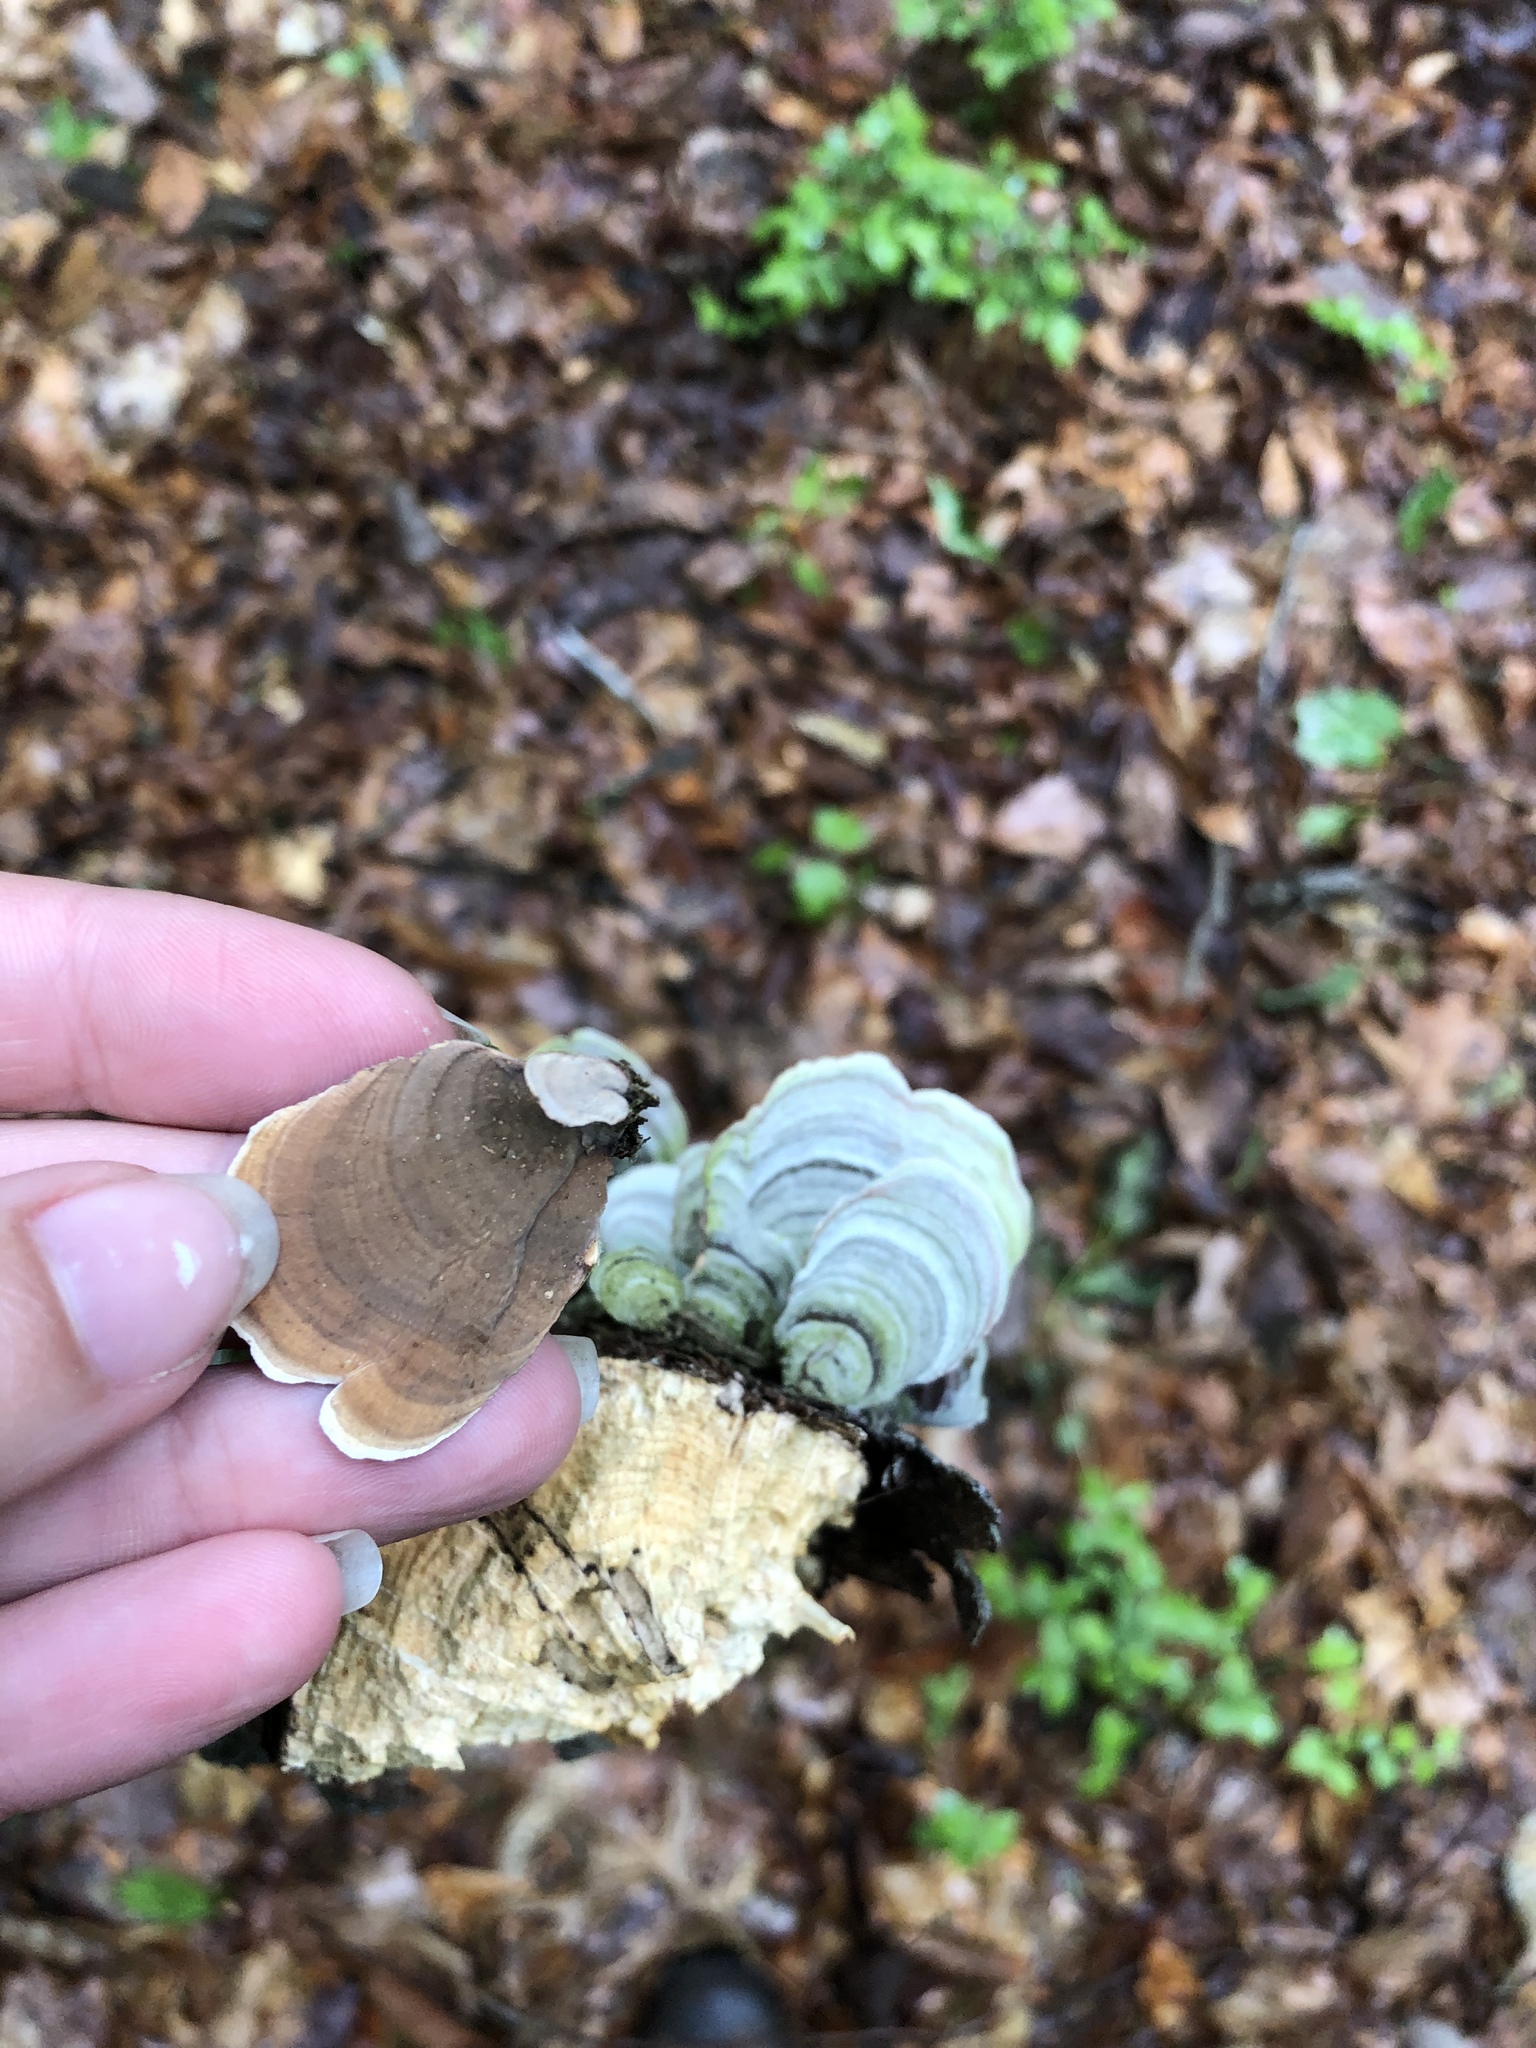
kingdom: Fungi
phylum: Basidiomycota
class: Agaricomycetes
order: Russulales
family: Stereaceae
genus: Stereum
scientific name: Stereum ostrea
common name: False turkeytail
